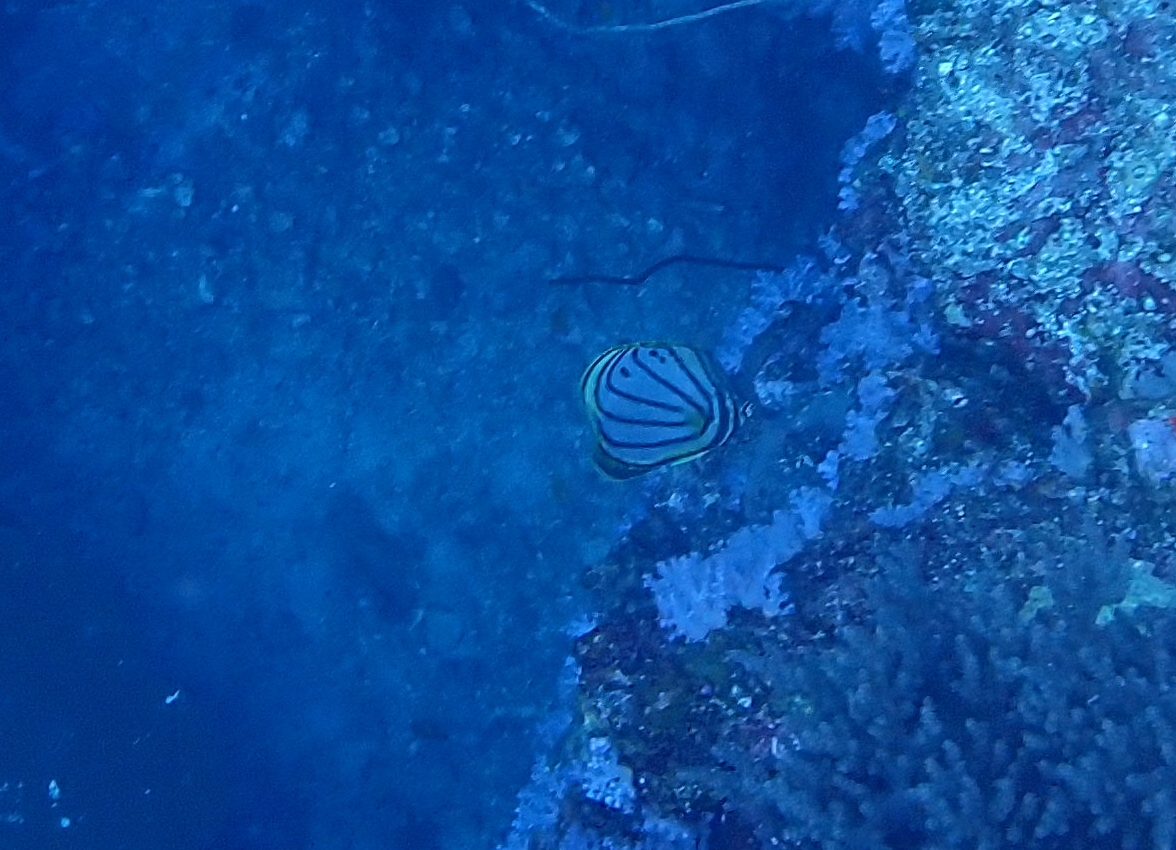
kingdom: Animalia
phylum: Chordata
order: Perciformes
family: Chaetodontidae
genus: Chaetodon
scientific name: Chaetodon meyeri
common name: Meyer's butterflyfish
